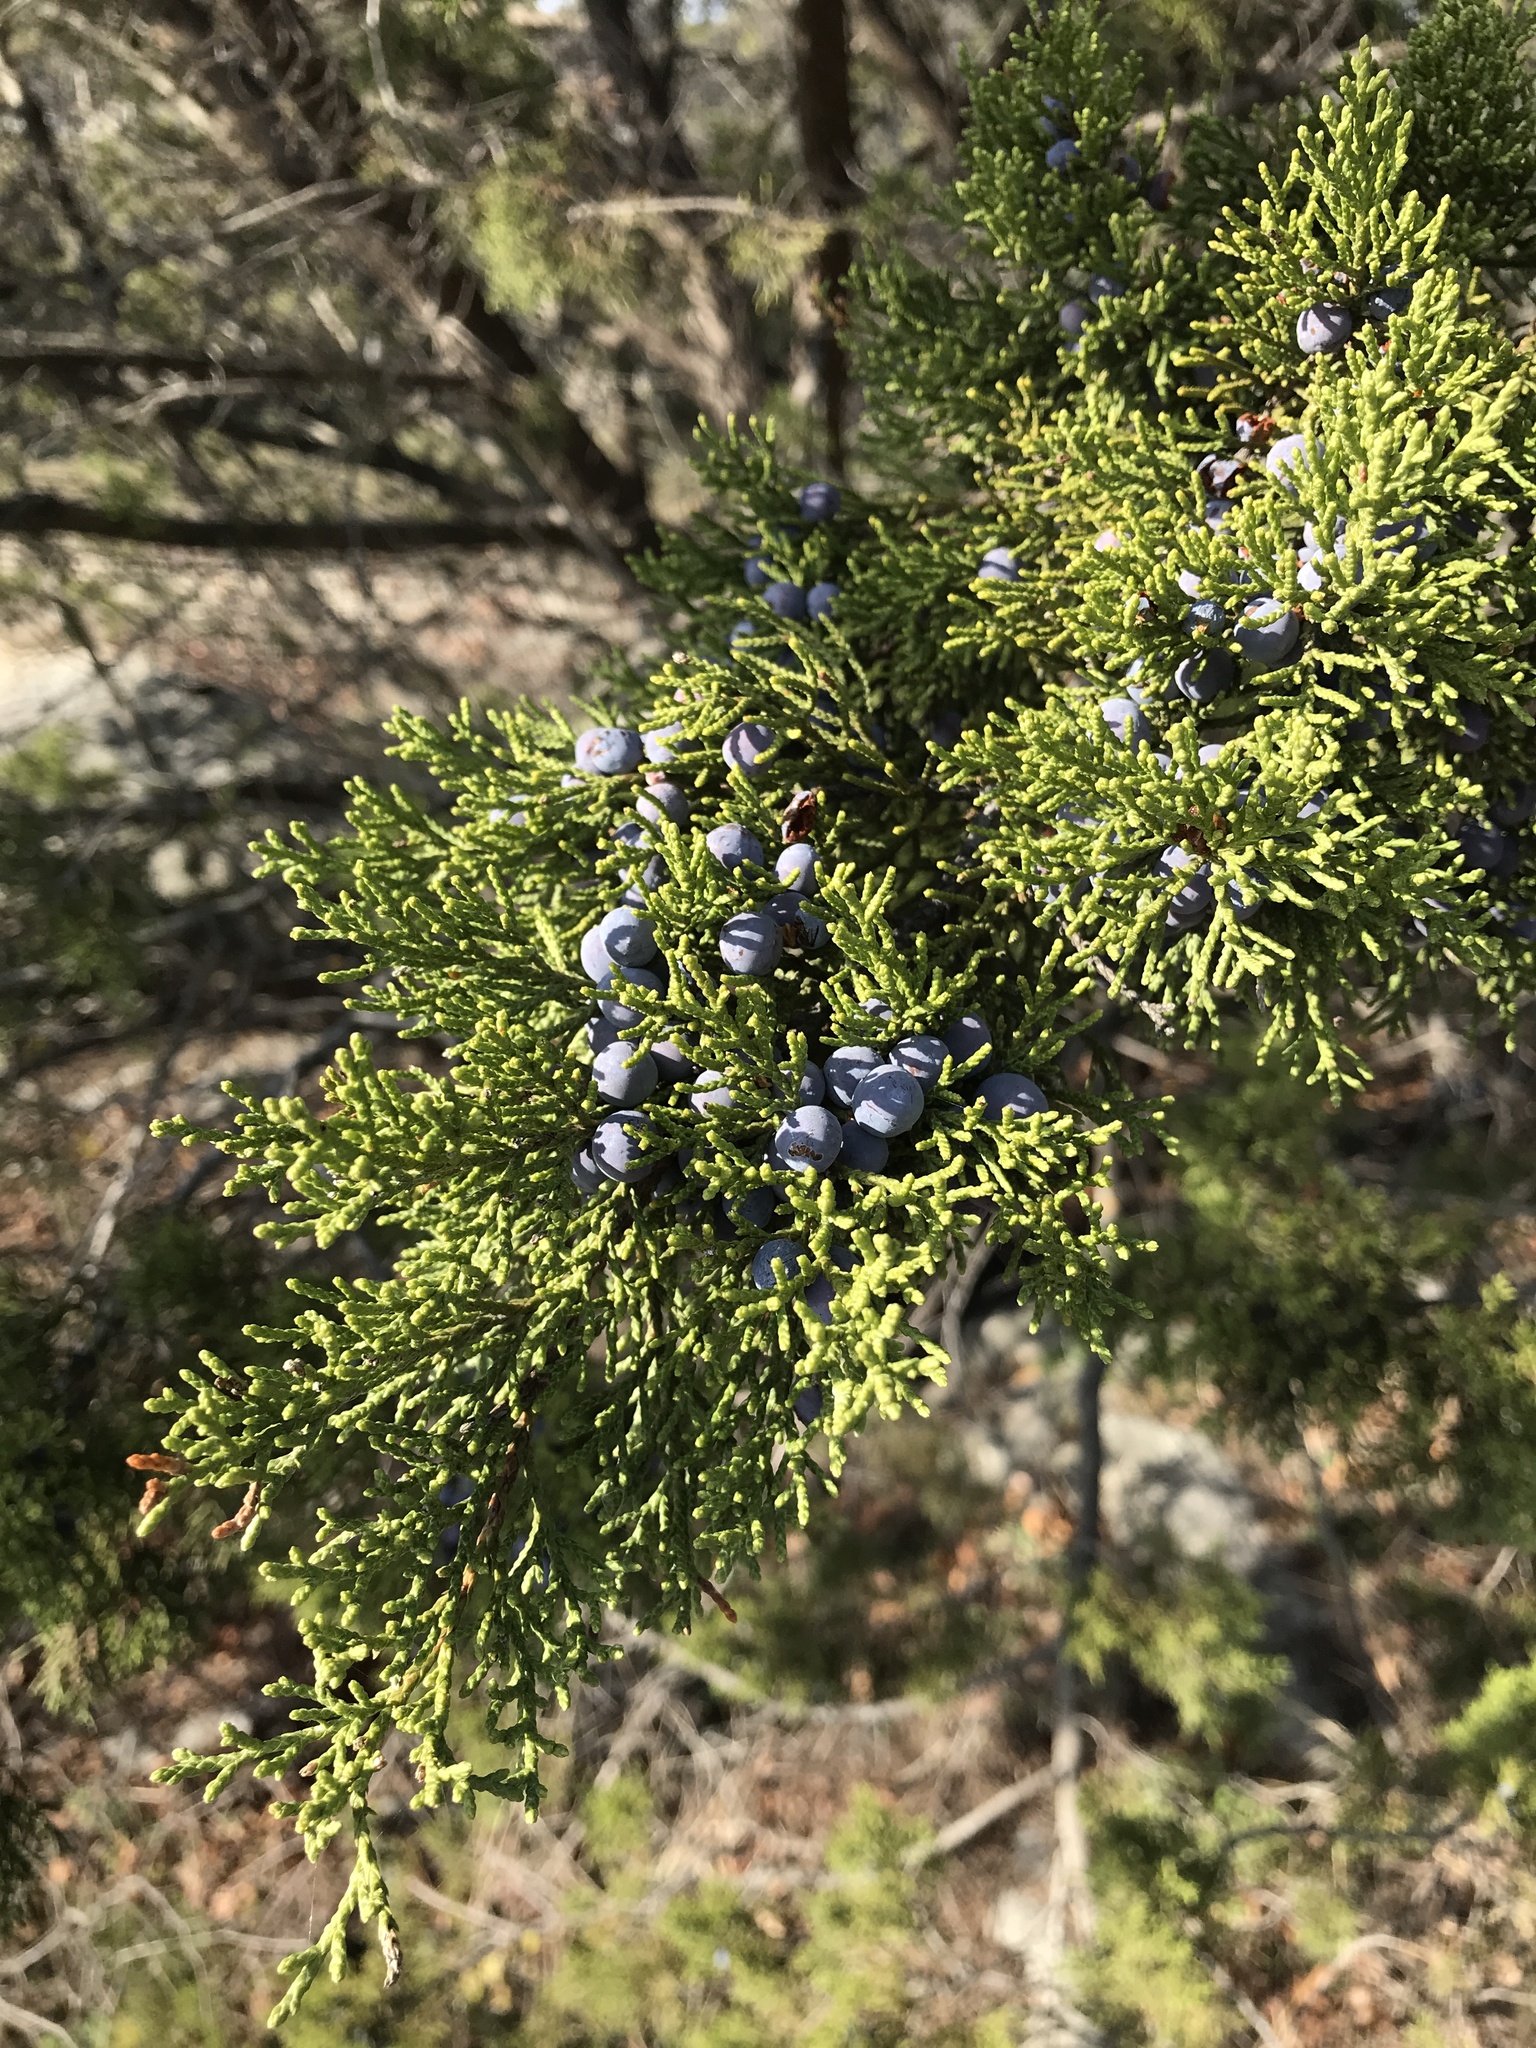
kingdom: Plantae
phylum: Tracheophyta
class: Pinopsida
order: Pinales
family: Cupressaceae
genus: Juniperus
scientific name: Juniperus ashei
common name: Mexican juniper
